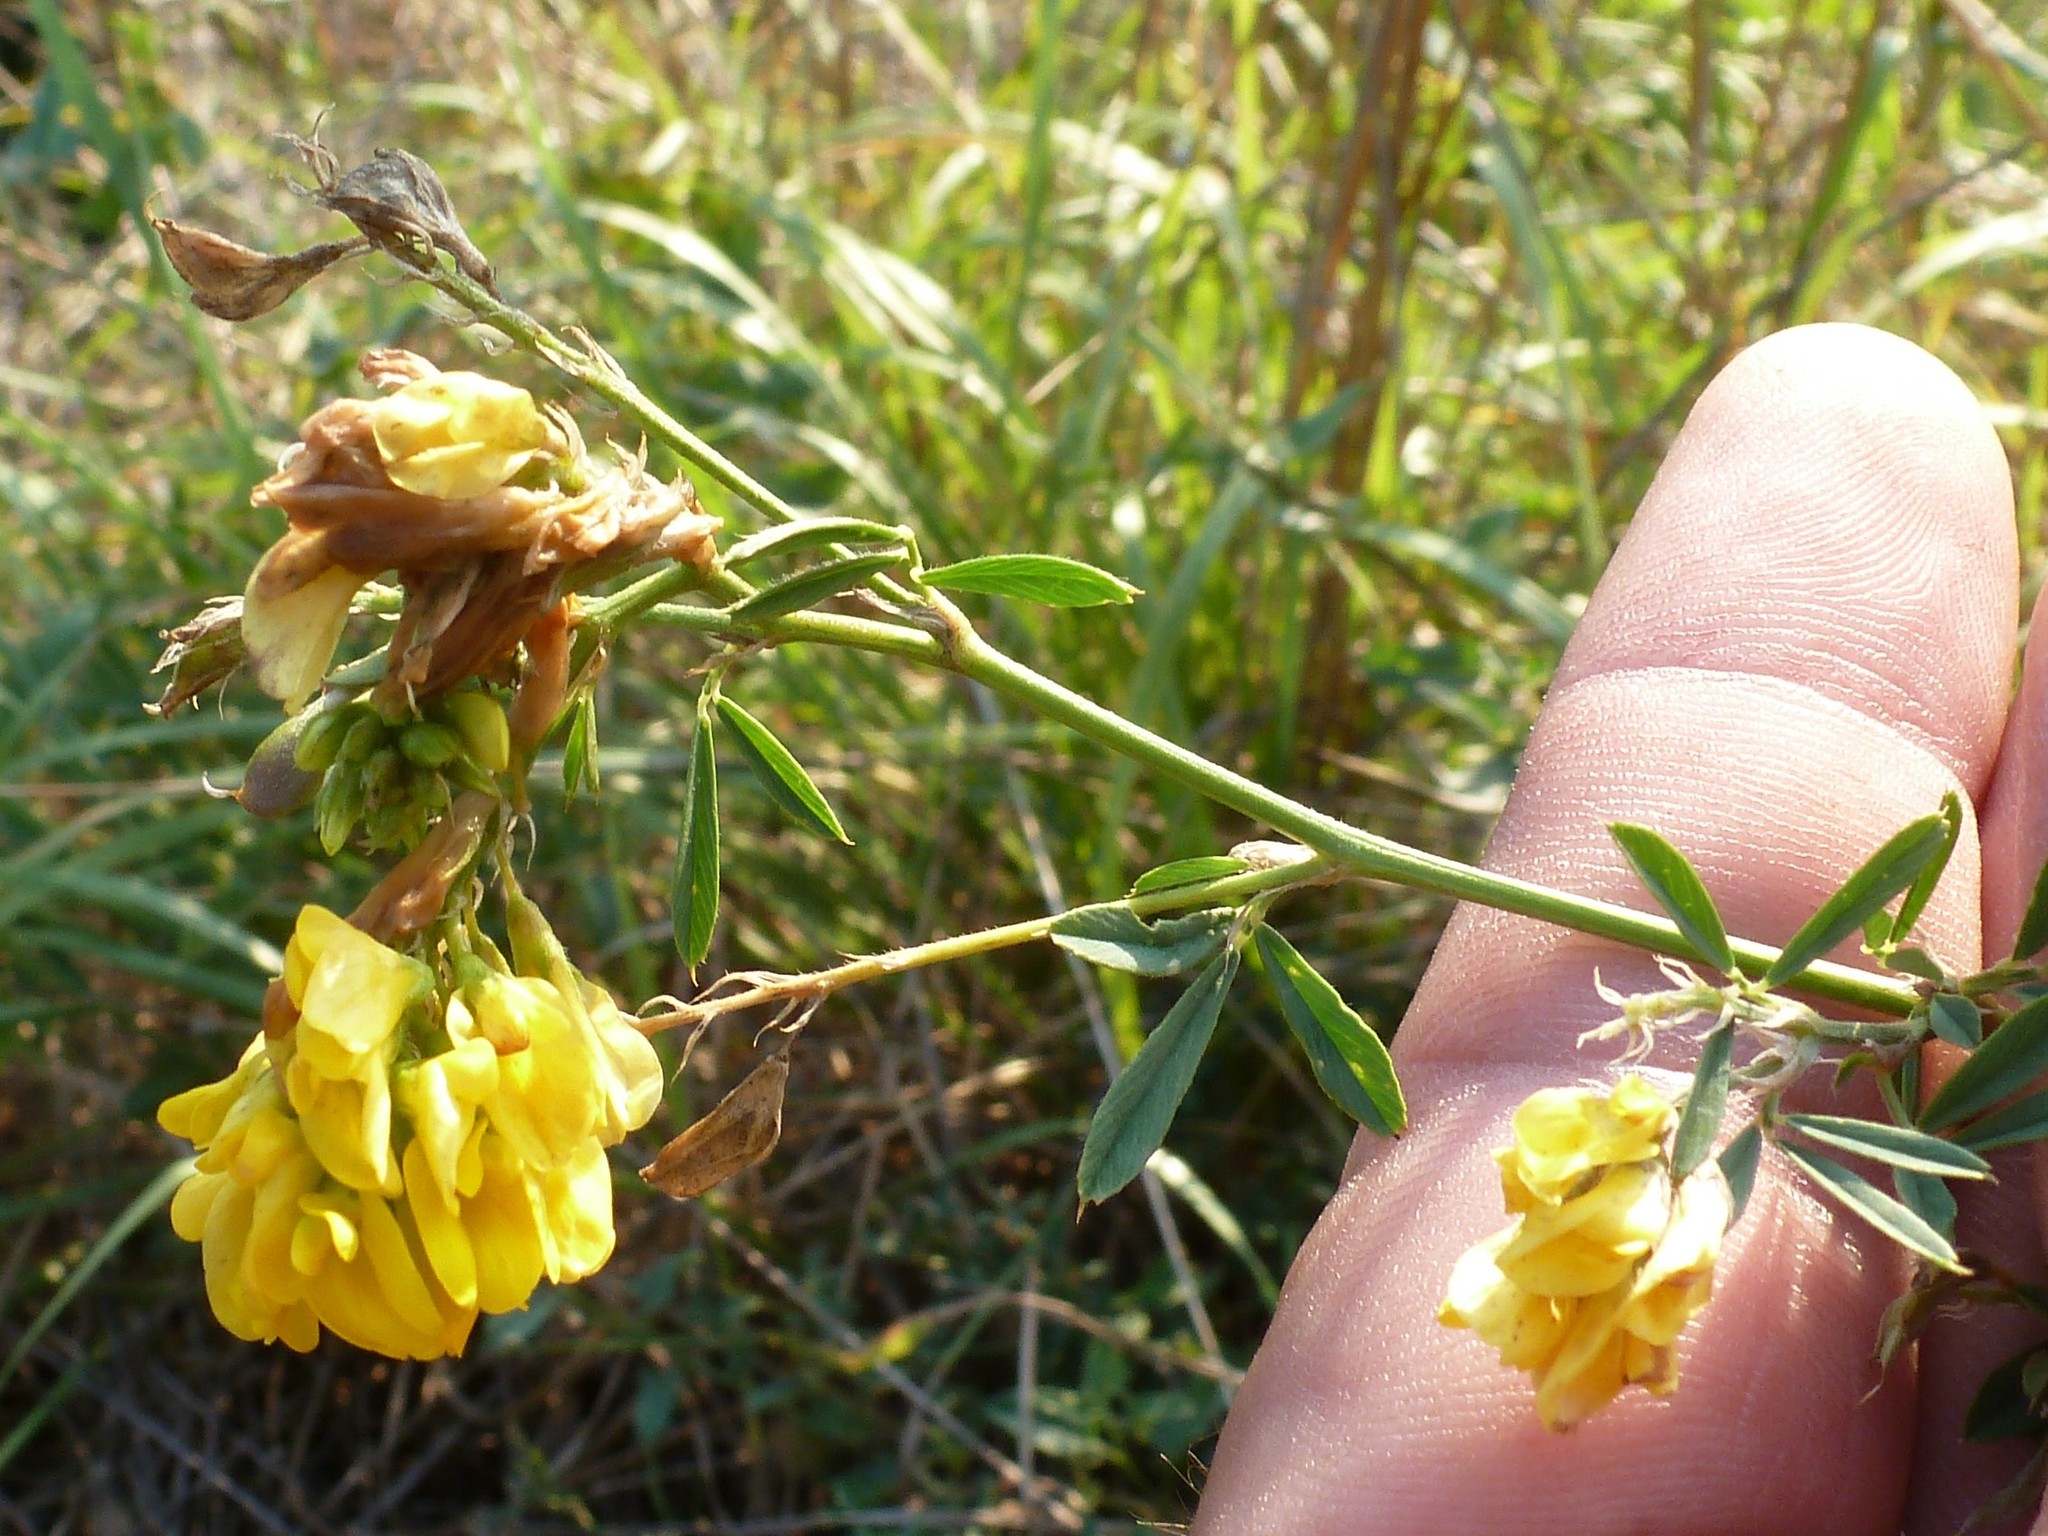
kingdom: Plantae
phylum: Tracheophyta
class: Magnoliopsida
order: Fabales
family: Fabaceae
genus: Medicago
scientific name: Medicago falcata
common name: Sickle medick
